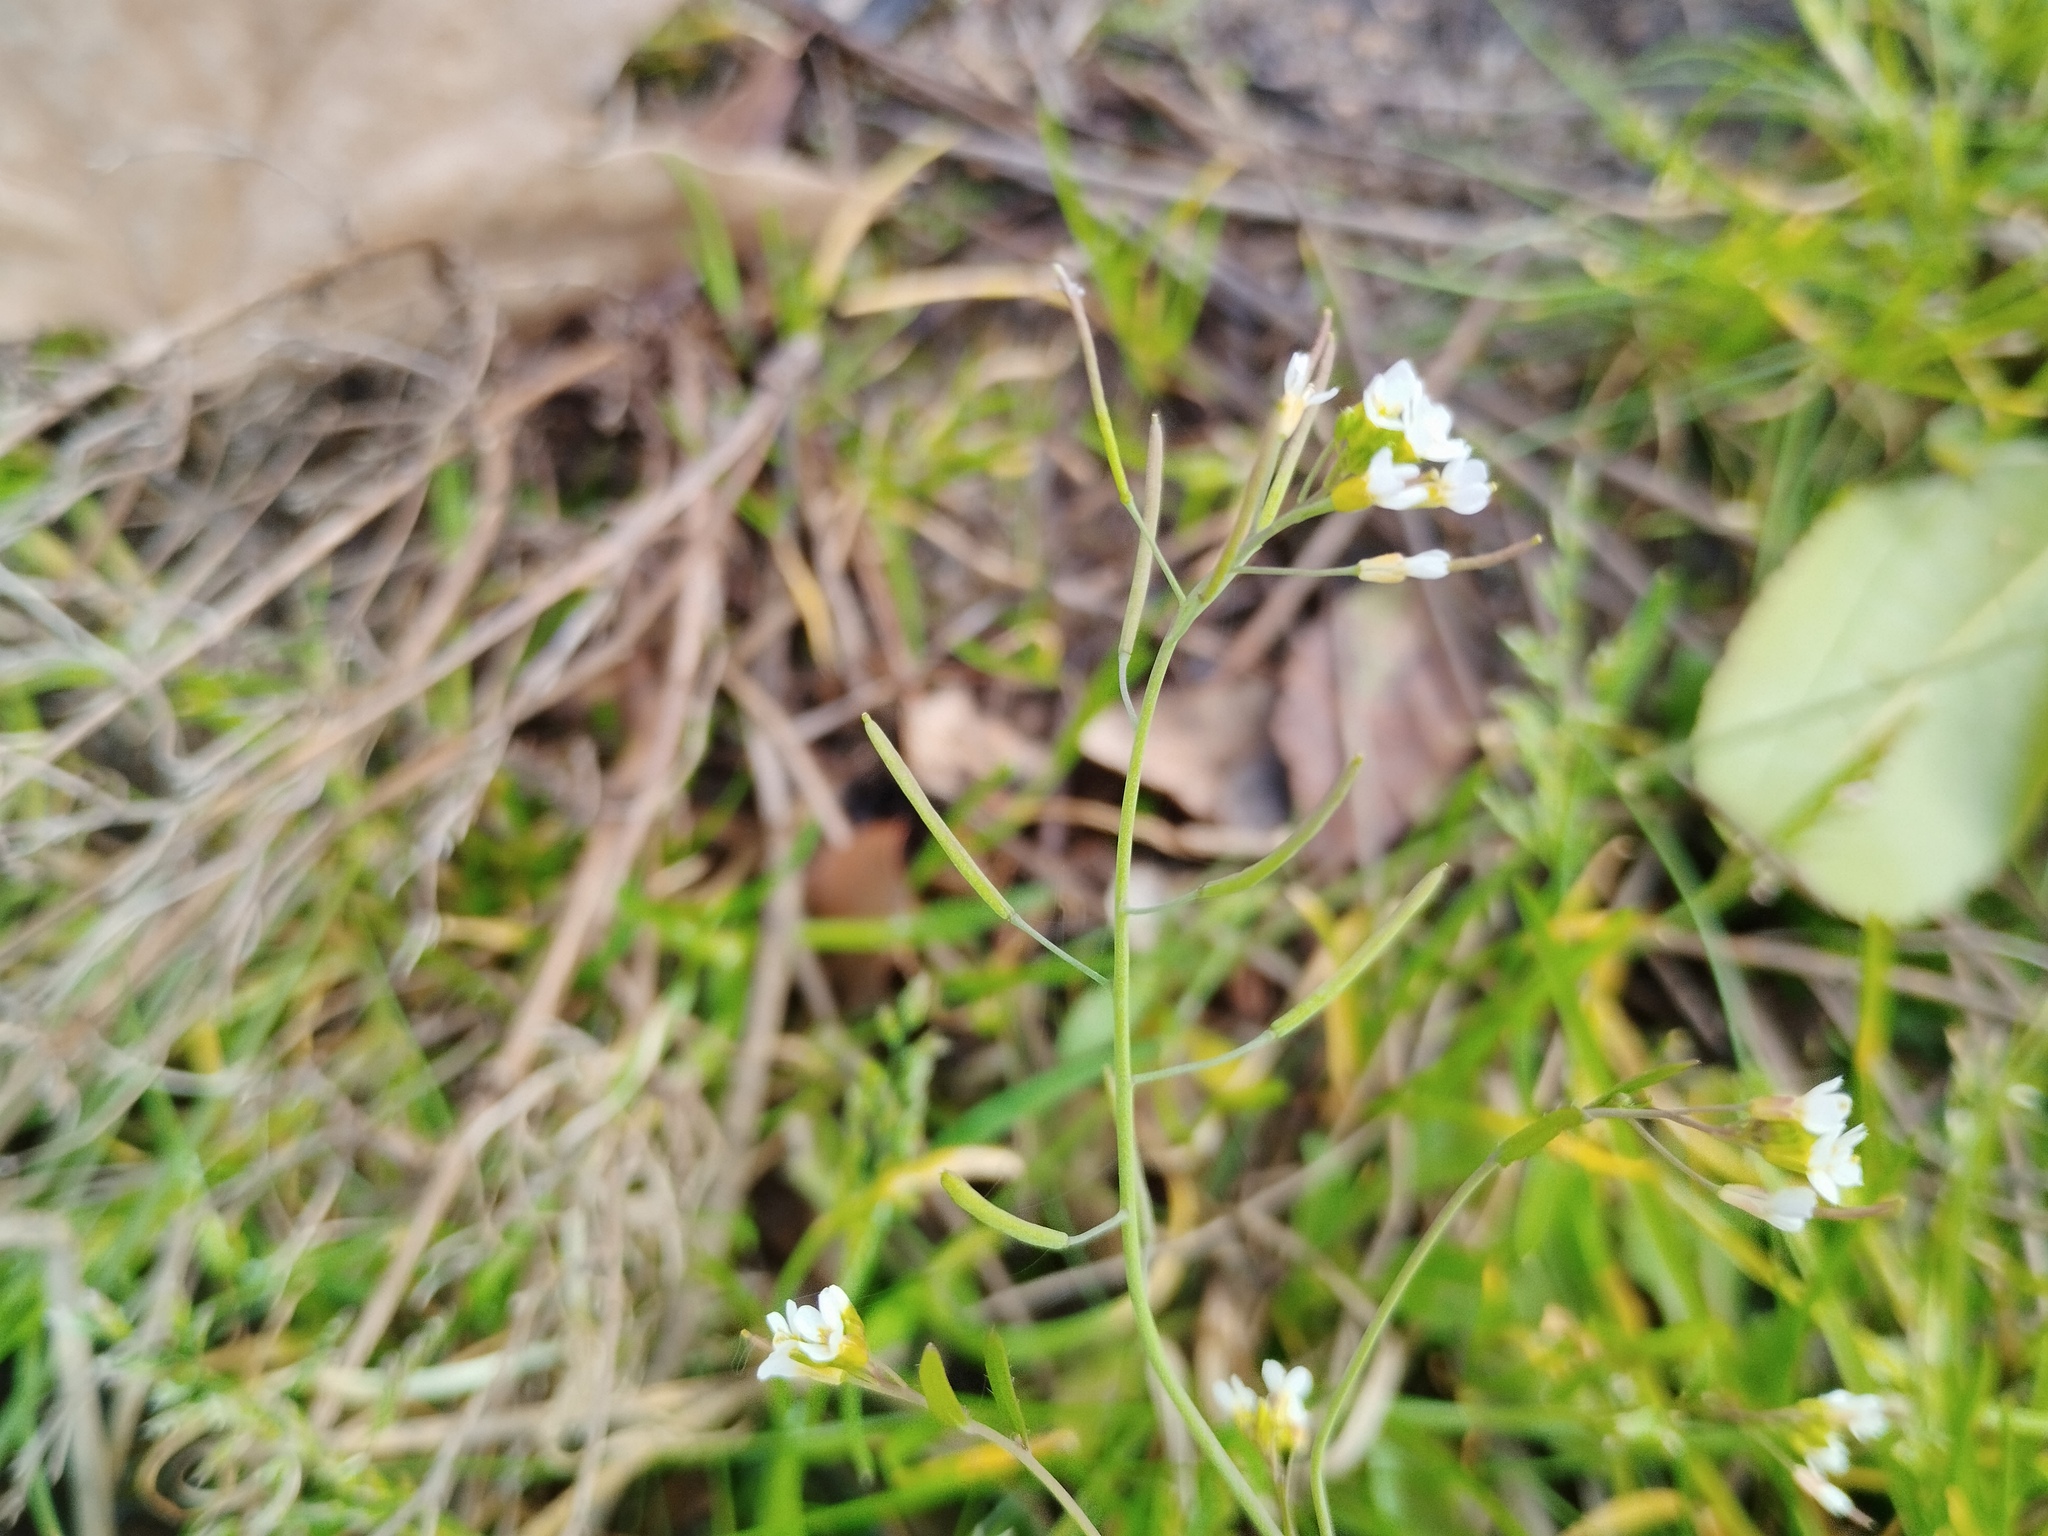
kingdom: Plantae
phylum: Tracheophyta
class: Magnoliopsida
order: Brassicales
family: Brassicaceae
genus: Arabidopsis
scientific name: Arabidopsis thaliana
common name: Thale cress
